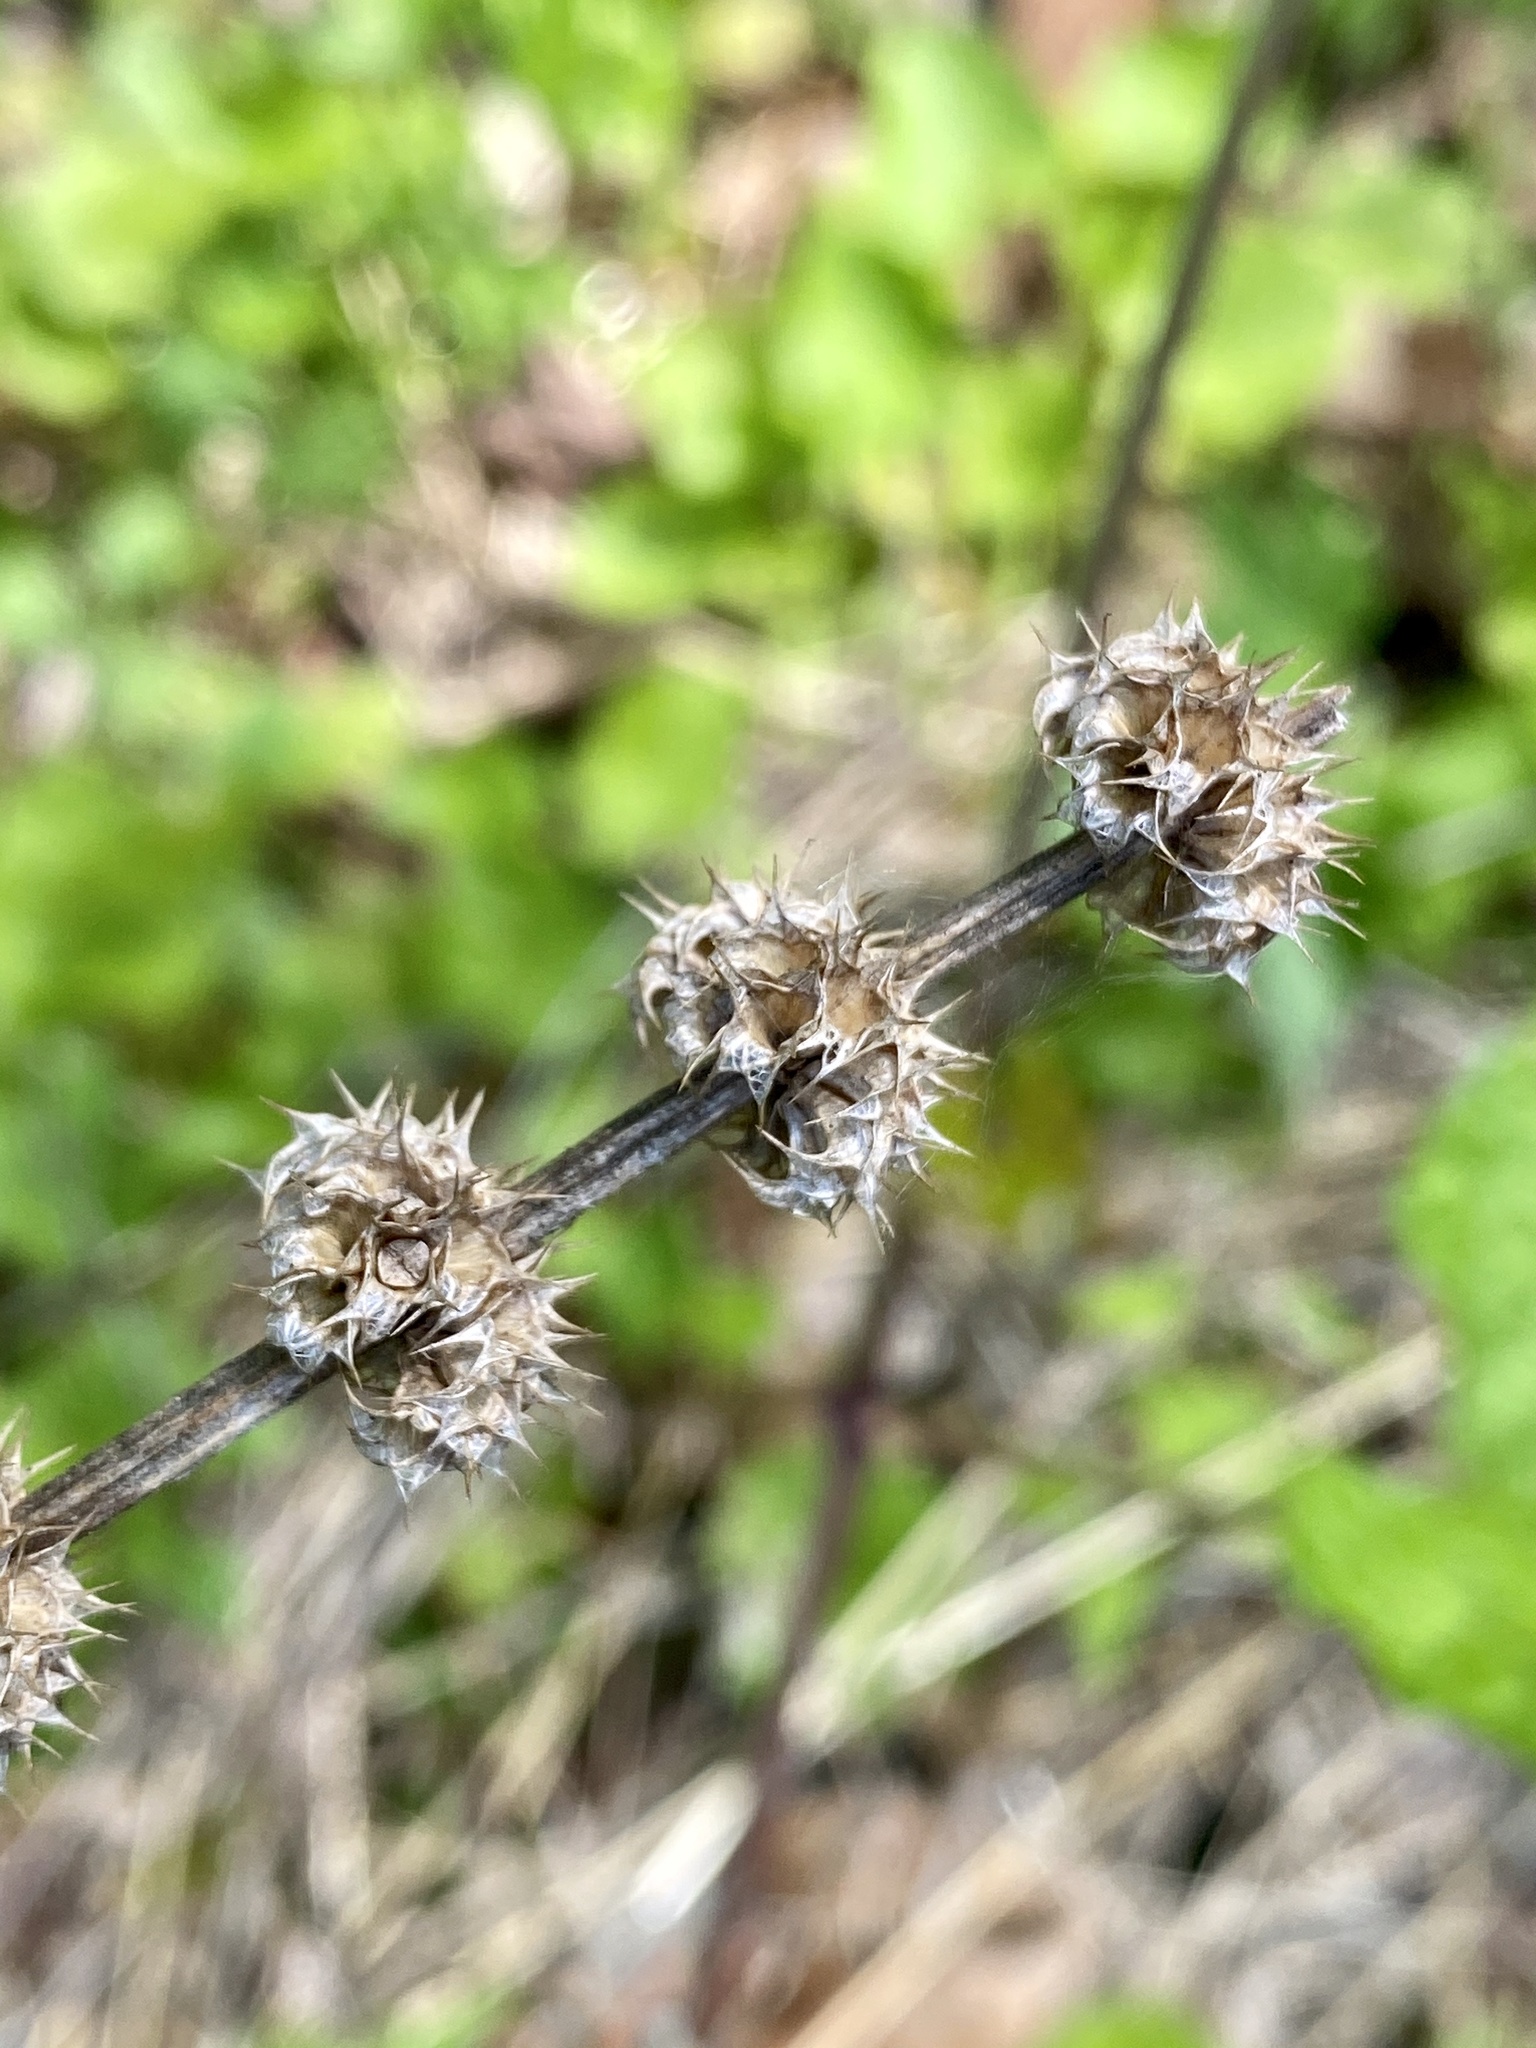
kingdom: Plantae
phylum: Tracheophyta
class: Magnoliopsida
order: Lamiales
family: Lamiaceae
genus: Leonurus
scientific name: Leonurus cardiaca
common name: Motherwort
